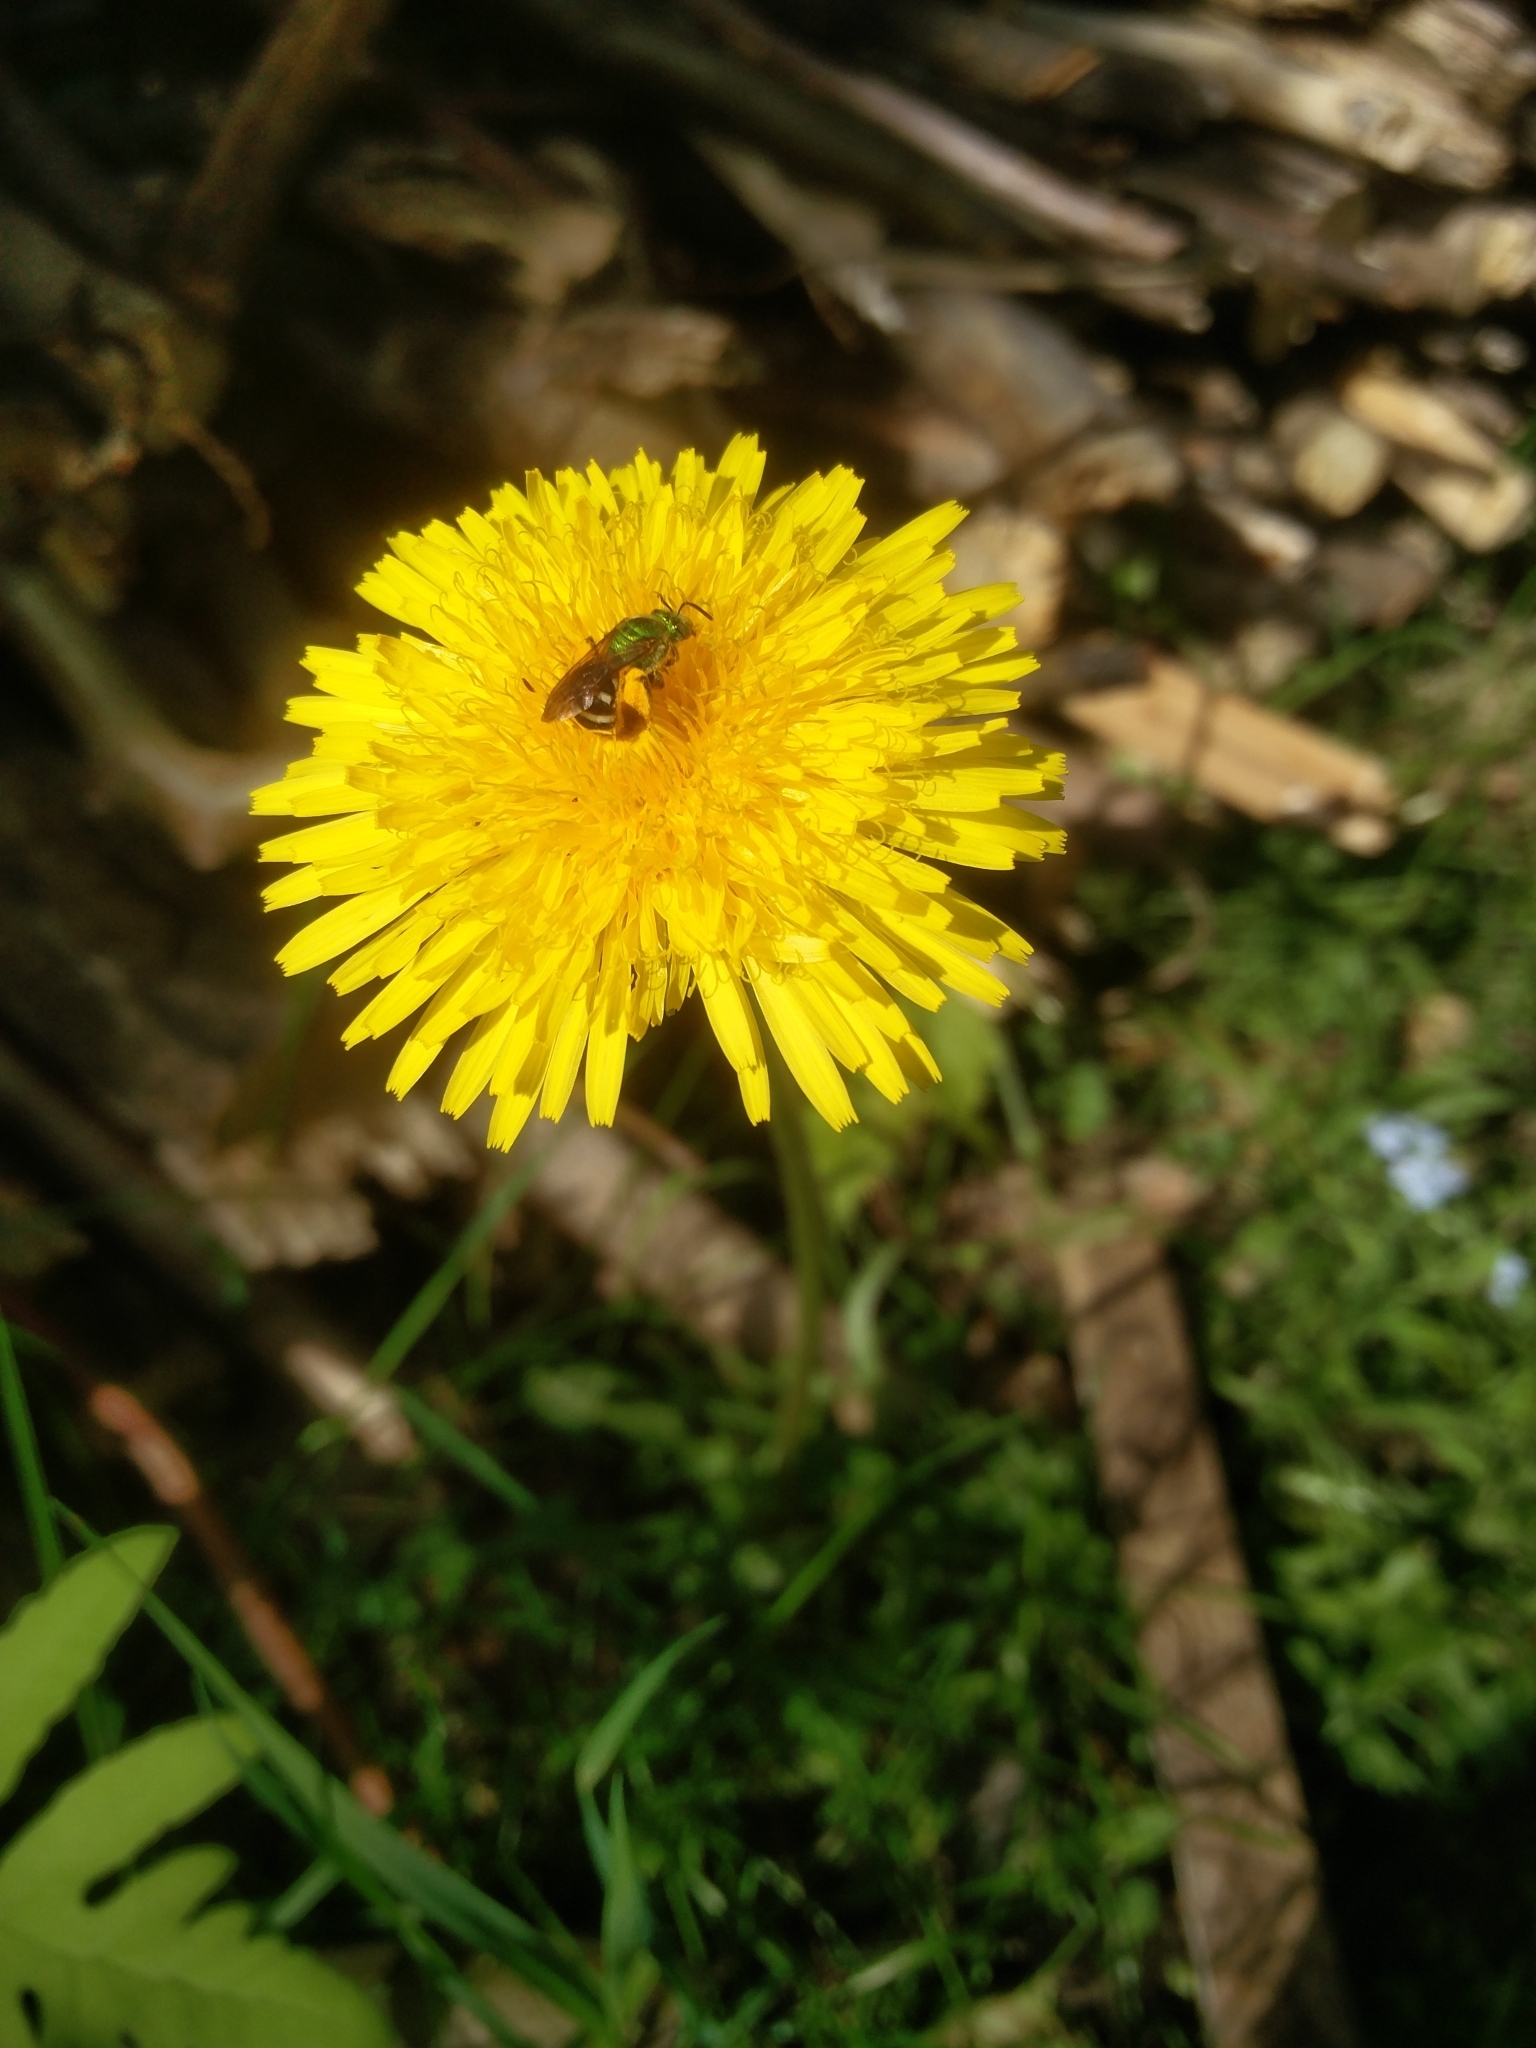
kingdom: Animalia
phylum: Arthropoda
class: Insecta
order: Hymenoptera
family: Halictidae
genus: Agapostemon
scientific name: Agapostemon virescens
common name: Bicolored striped sweat bee
